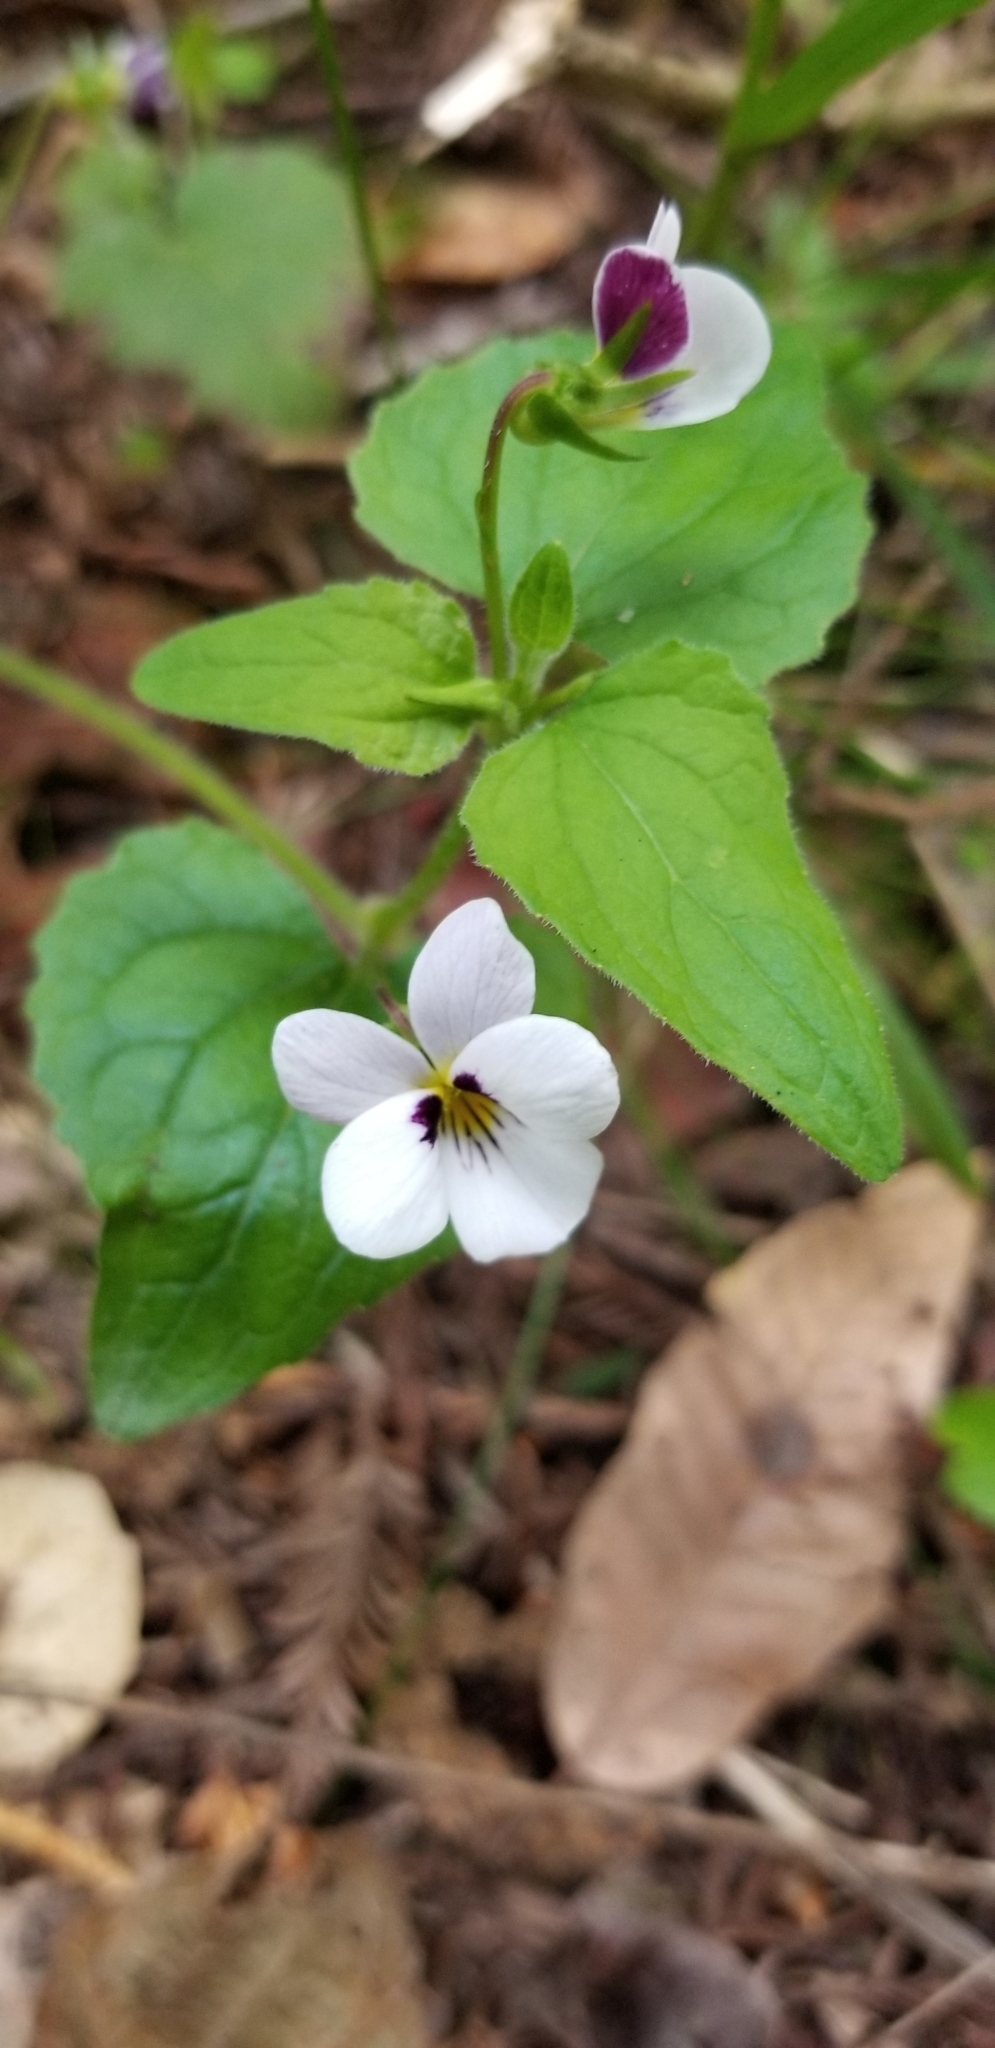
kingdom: Plantae
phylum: Tracheophyta
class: Magnoliopsida
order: Malpighiales
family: Violaceae
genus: Viola
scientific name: Viola ocellata
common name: Western heart's ease
